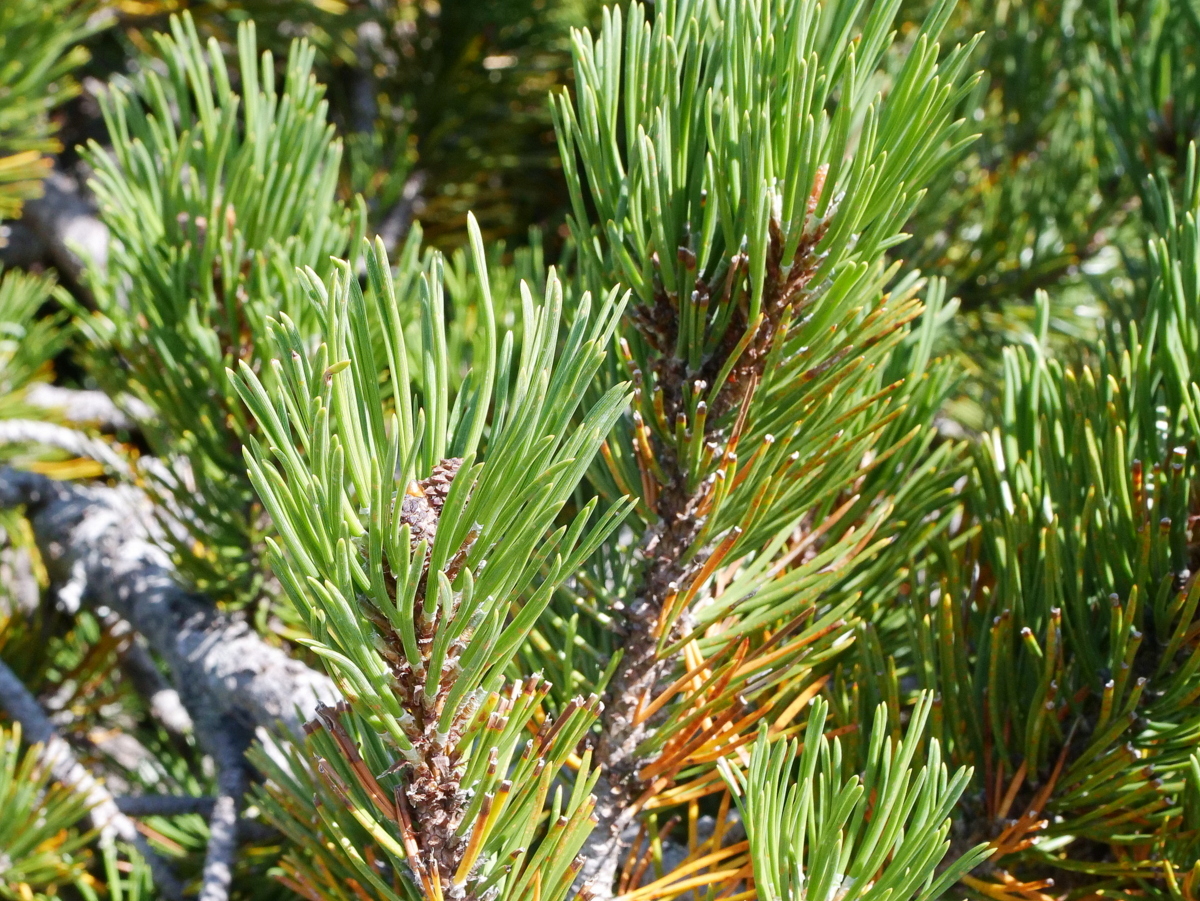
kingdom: Plantae
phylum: Tracheophyta
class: Pinopsida
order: Pinales
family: Pinaceae
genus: Pinus
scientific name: Pinus mugo
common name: Mugo pine
